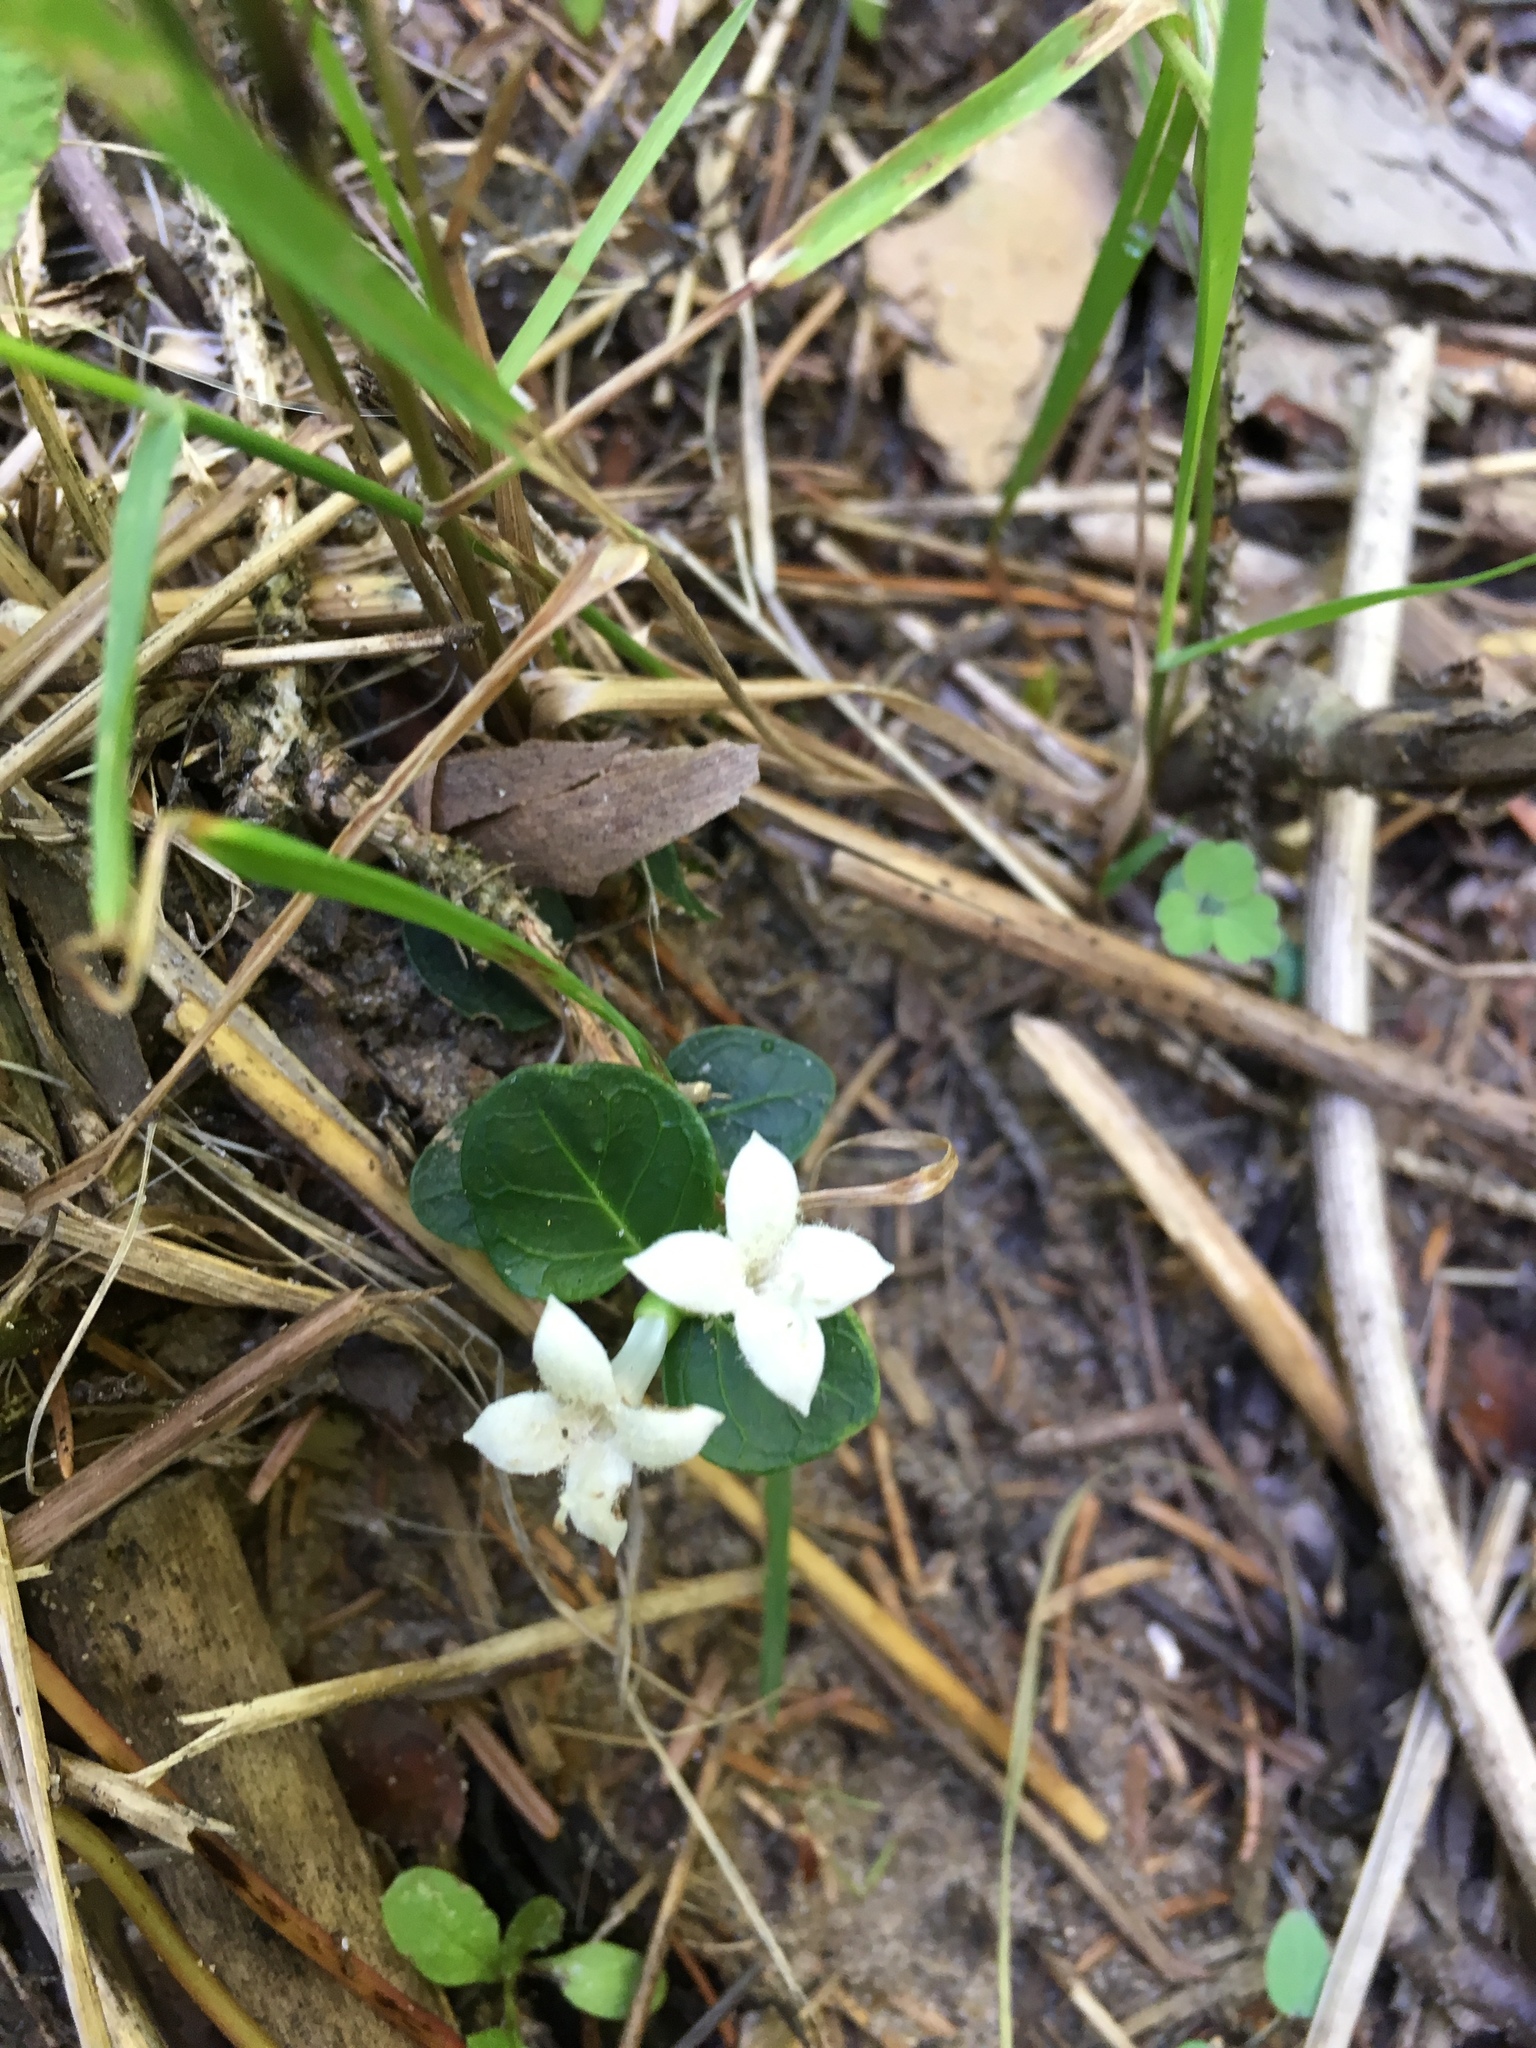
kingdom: Plantae
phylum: Tracheophyta
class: Magnoliopsida
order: Gentianales
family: Rubiaceae
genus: Mitchella
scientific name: Mitchella repens
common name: Partridge-berry
